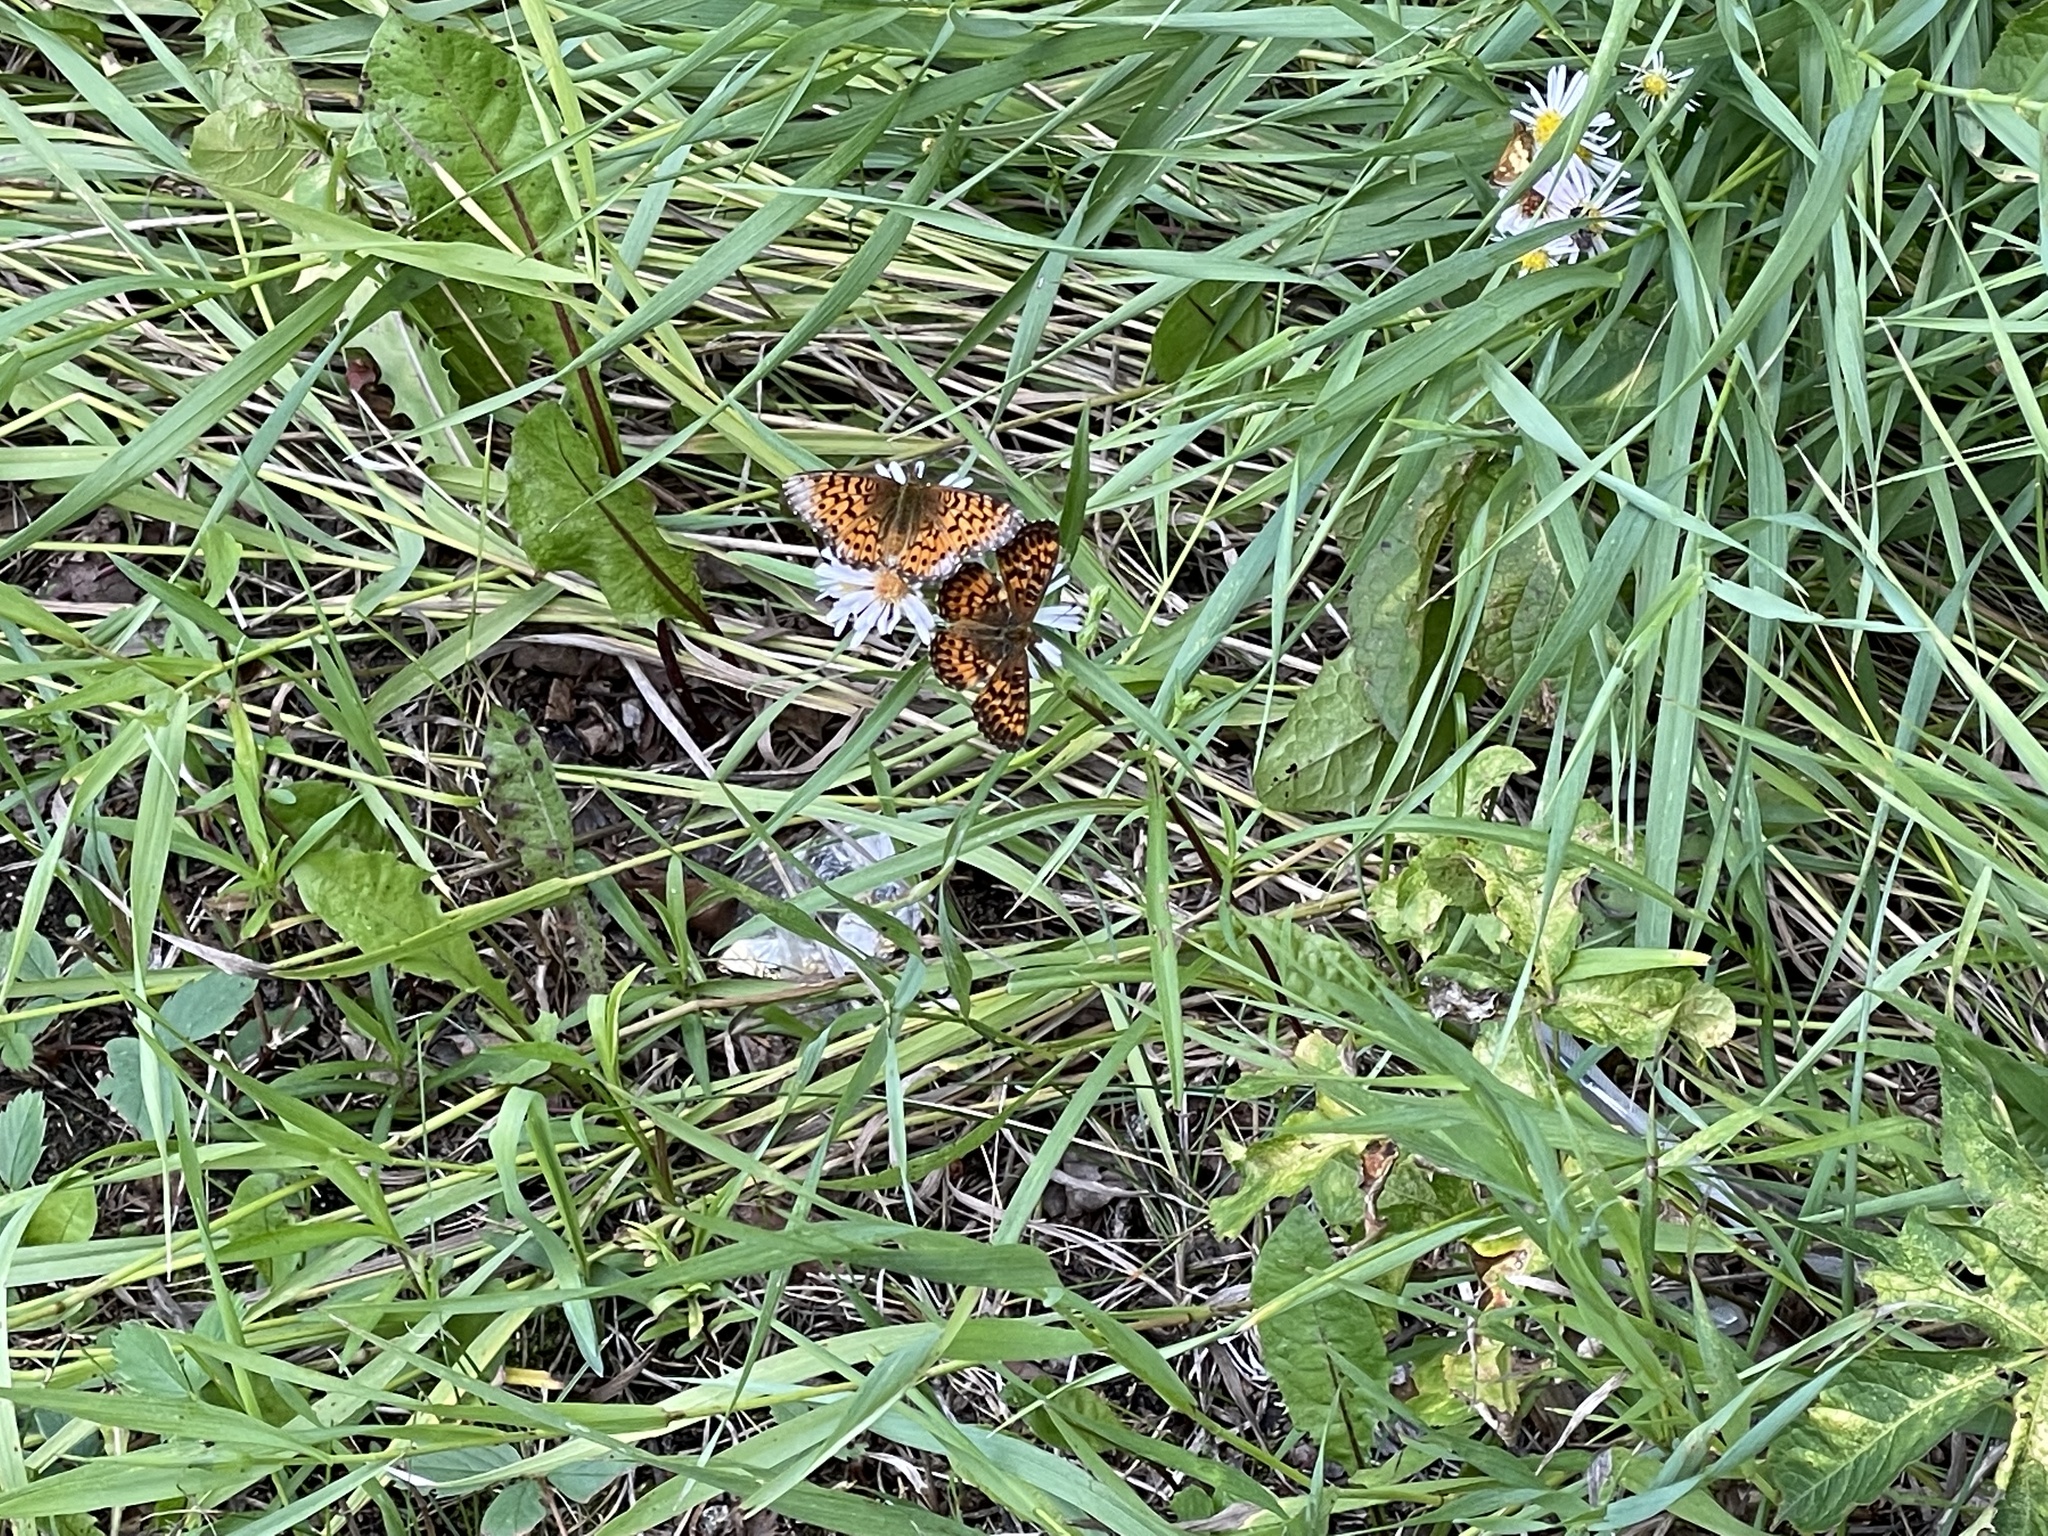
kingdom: Animalia
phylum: Arthropoda
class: Insecta
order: Lepidoptera
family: Nymphalidae
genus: Boloria
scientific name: Boloria chariclea
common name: Arctic fritillary
